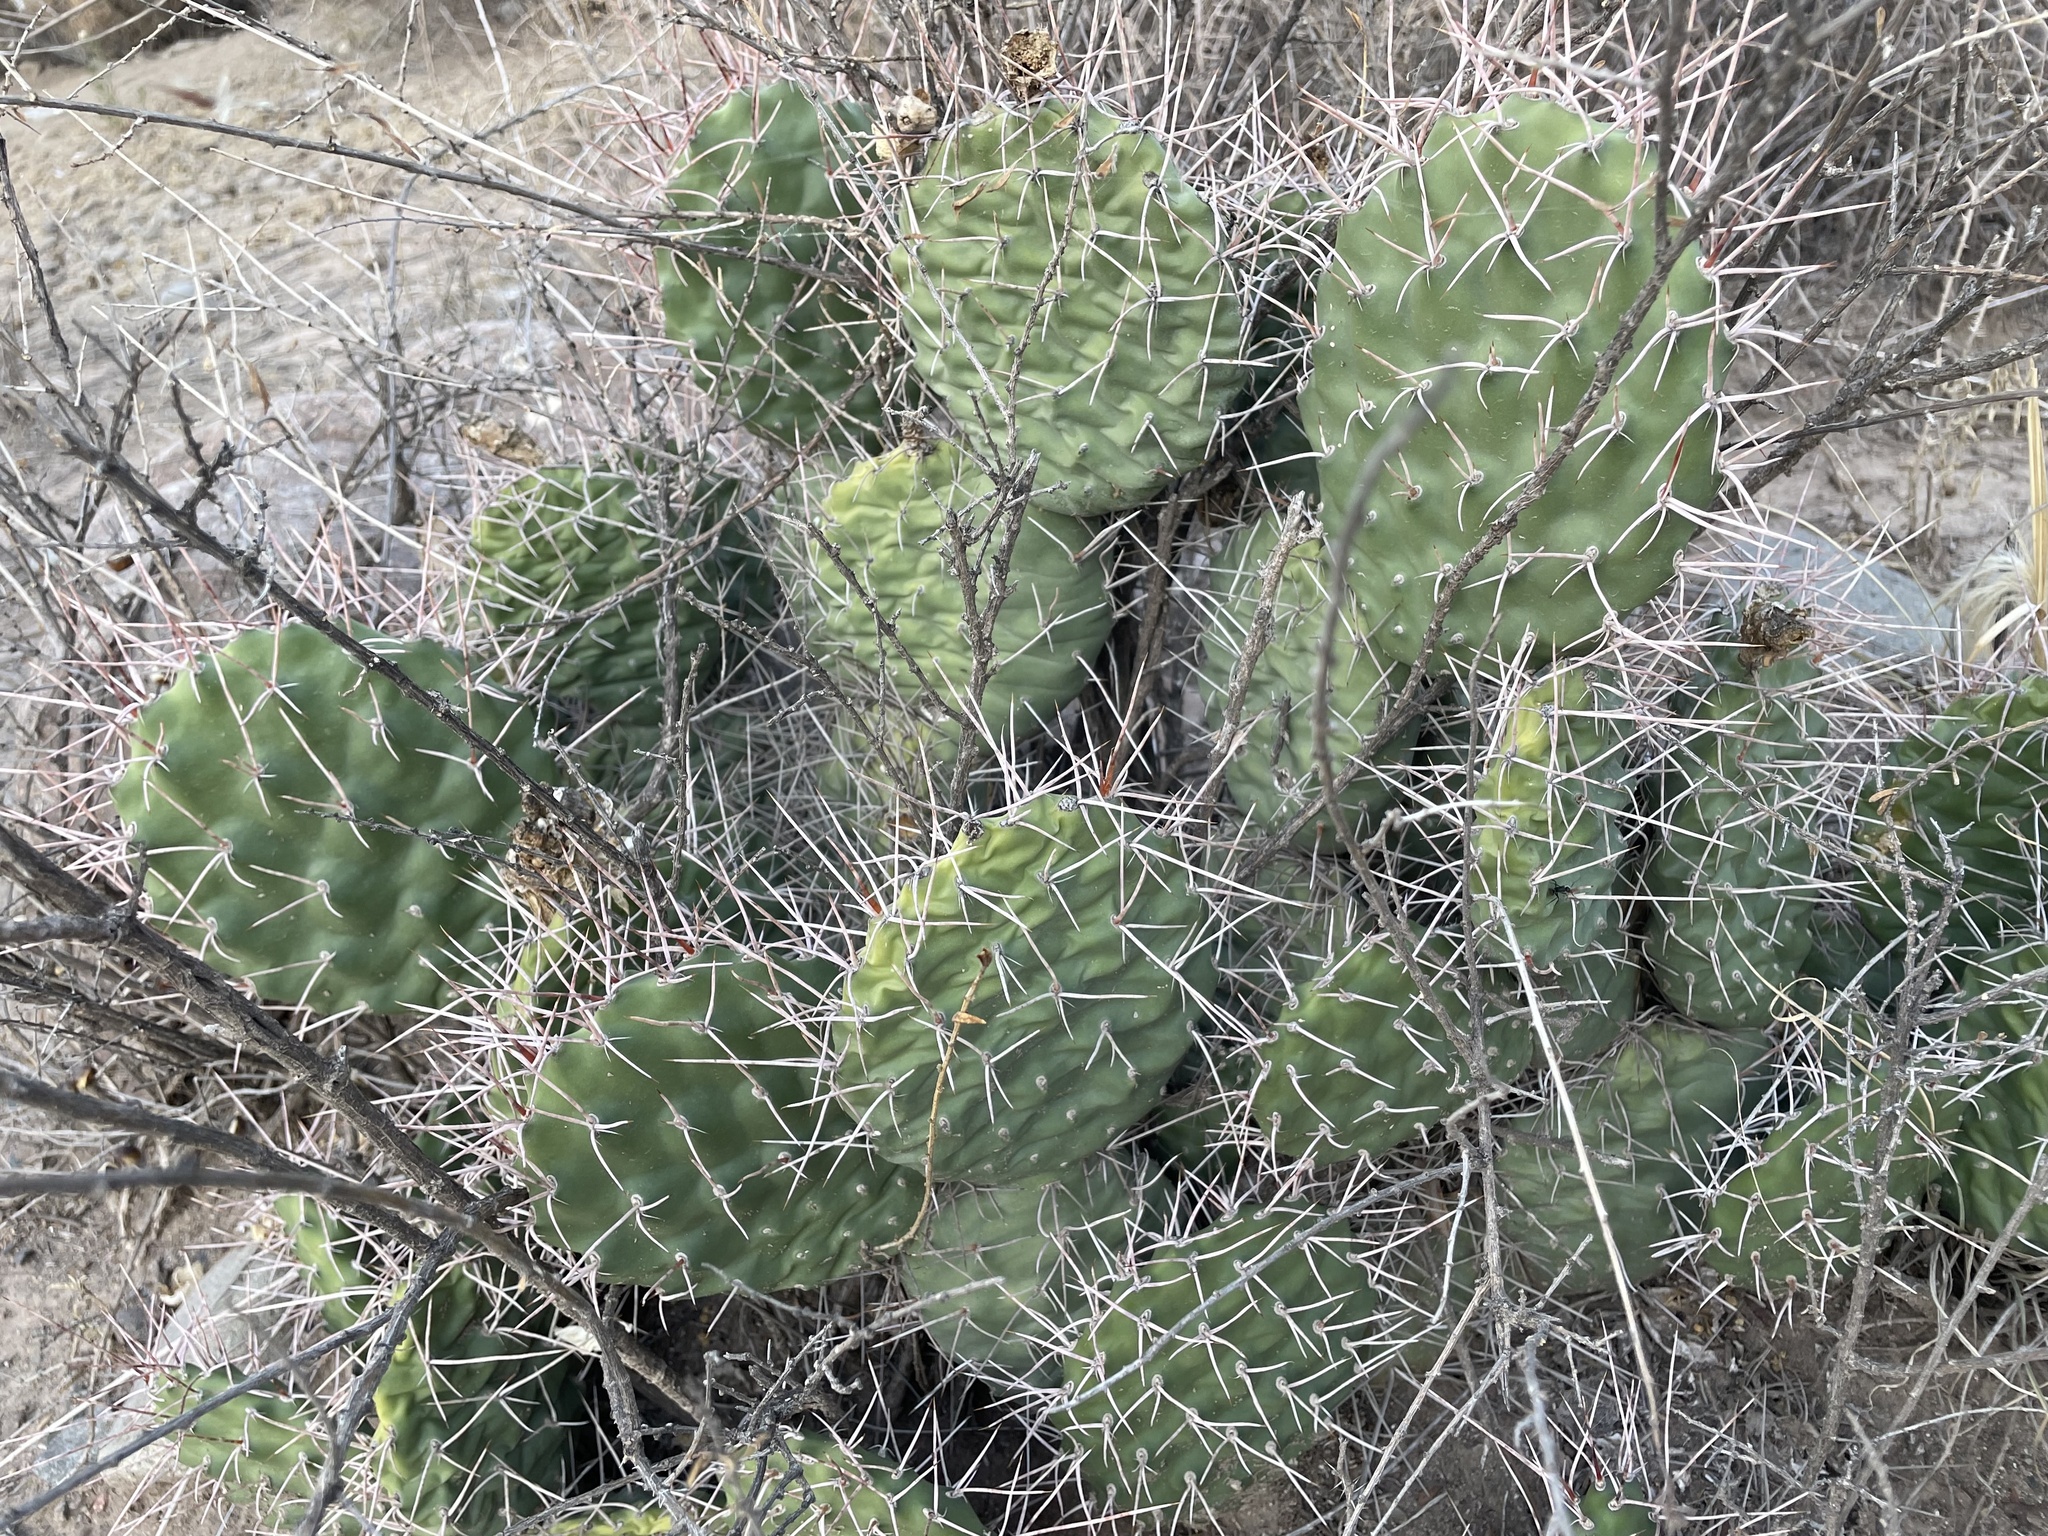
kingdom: Plantae
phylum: Tracheophyta
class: Magnoliopsida
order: Caryophyllales
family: Cactaceae
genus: Opuntia
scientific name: Opuntia sulphurea
